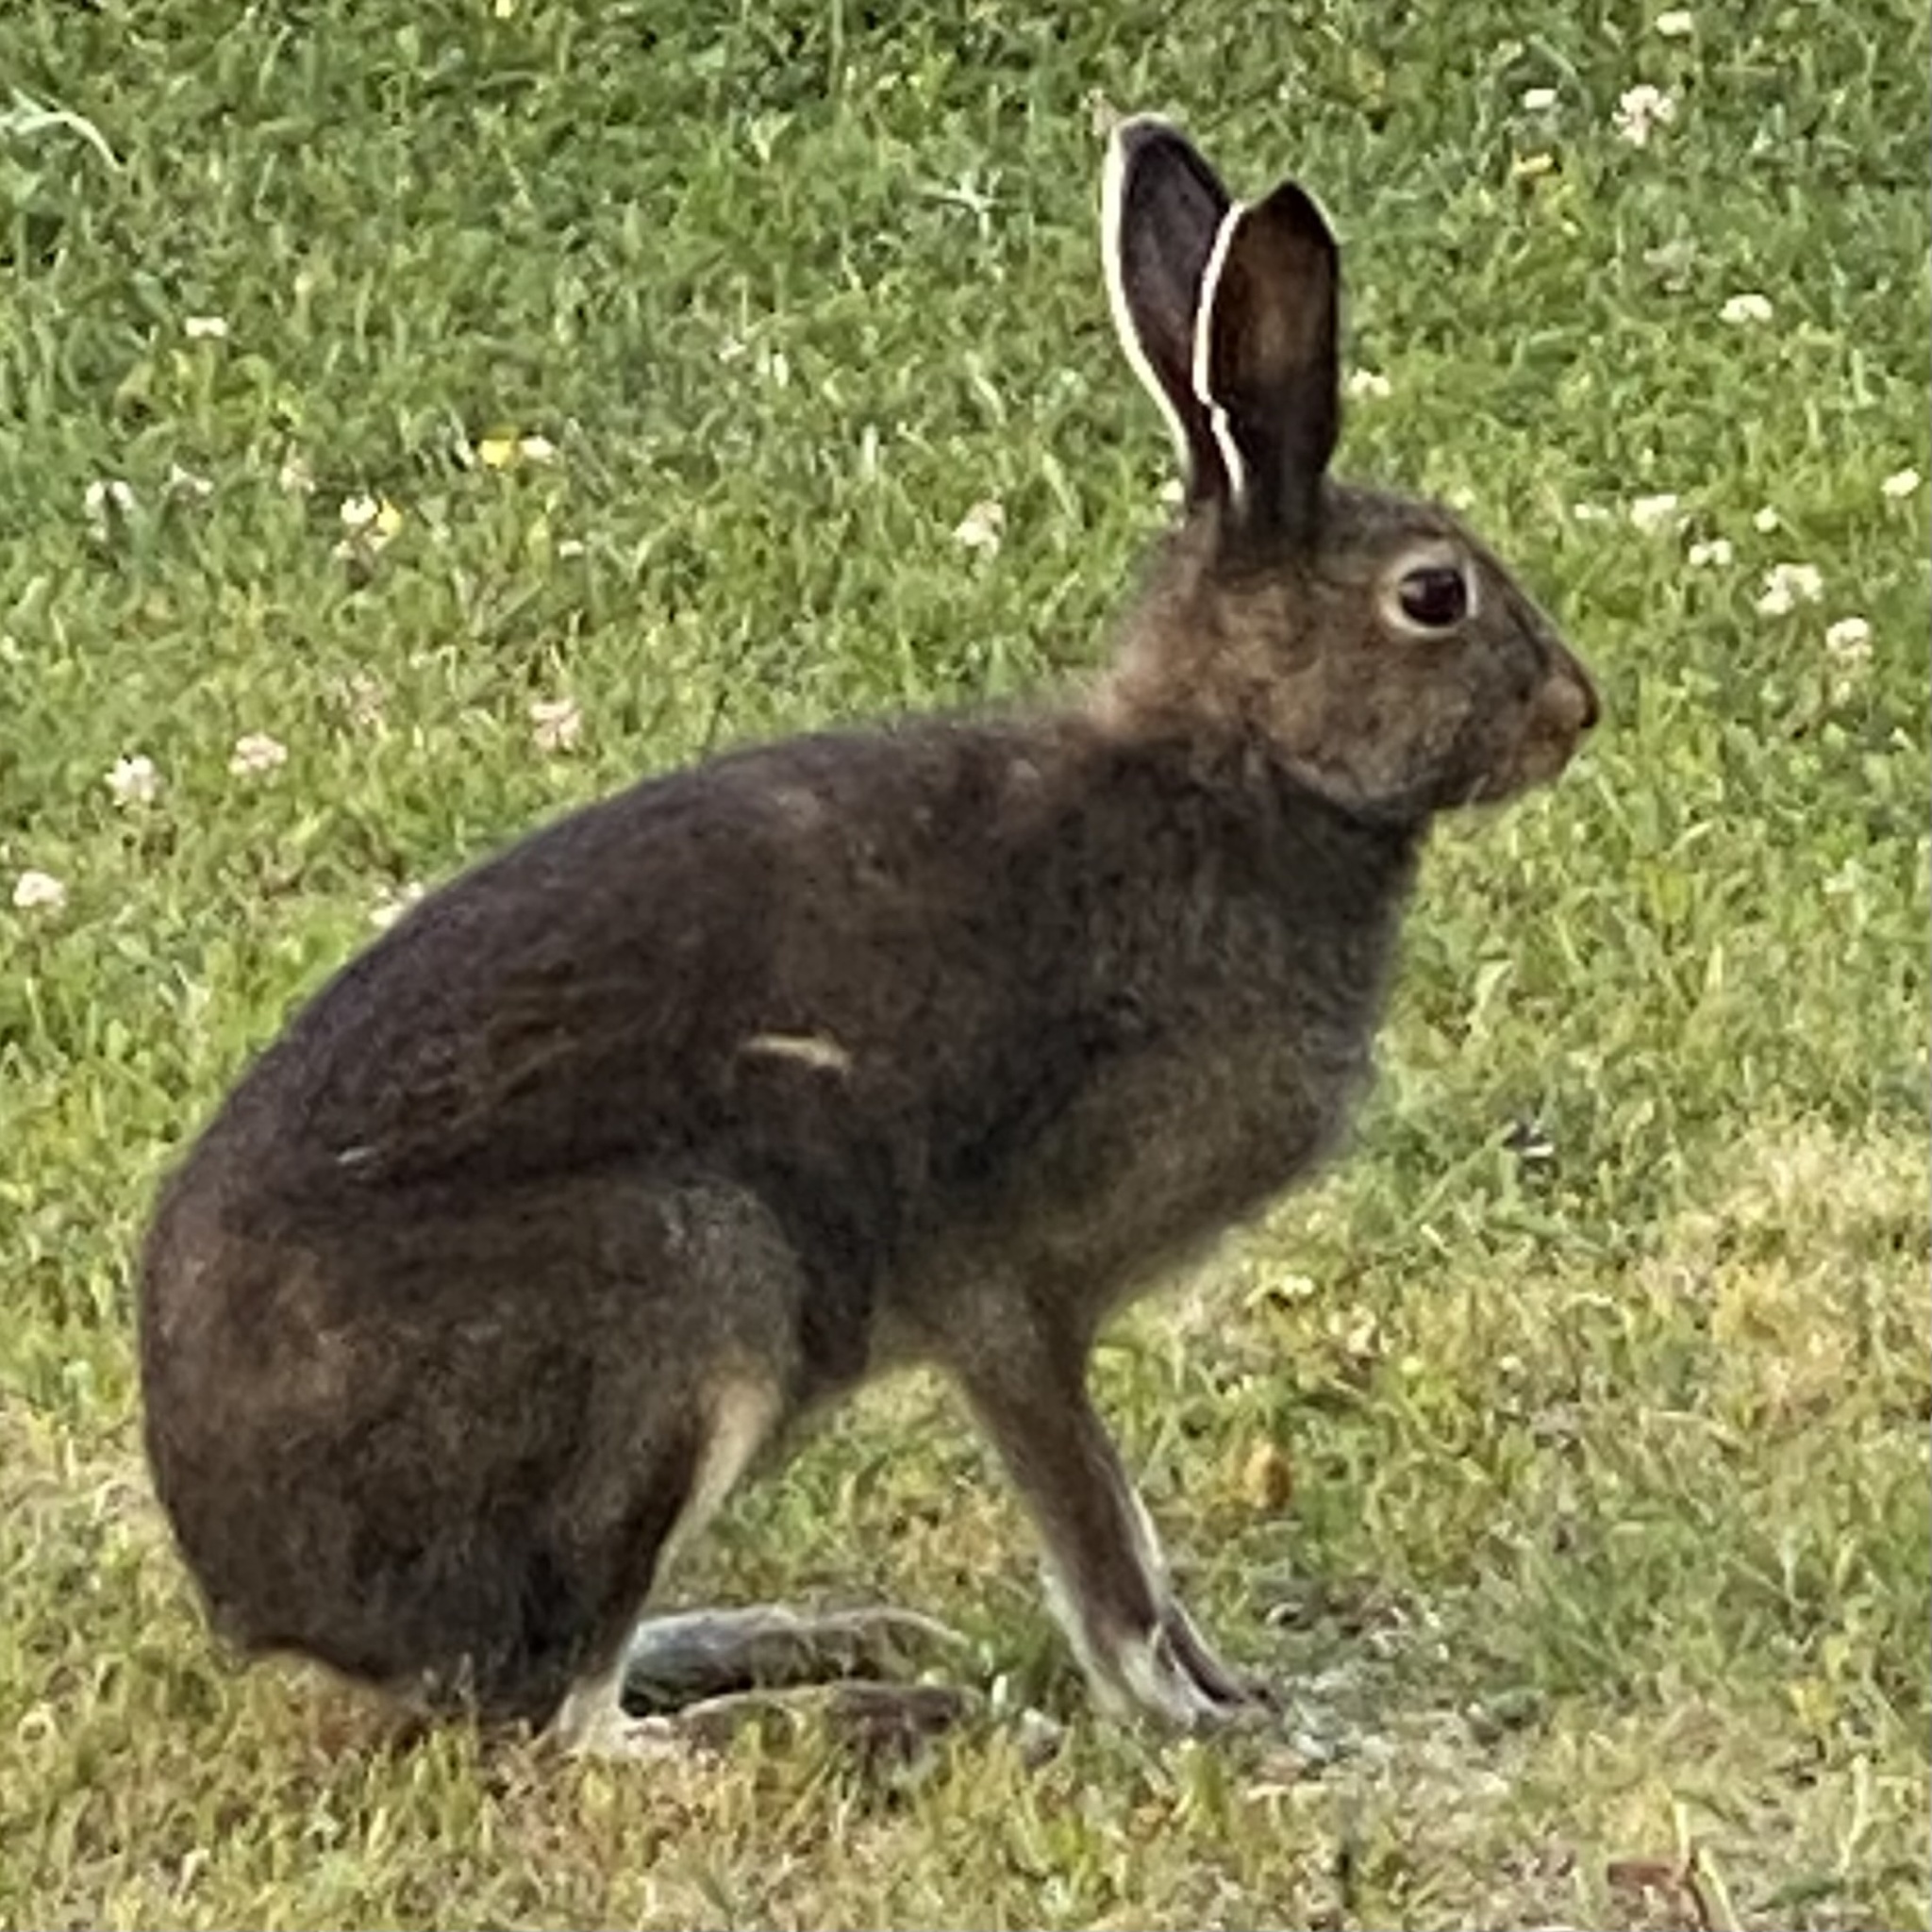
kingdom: Animalia
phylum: Chordata
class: Mammalia
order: Lagomorpha
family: Leporidae
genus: Lepus
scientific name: Lepus timidus
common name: Mountain hare
